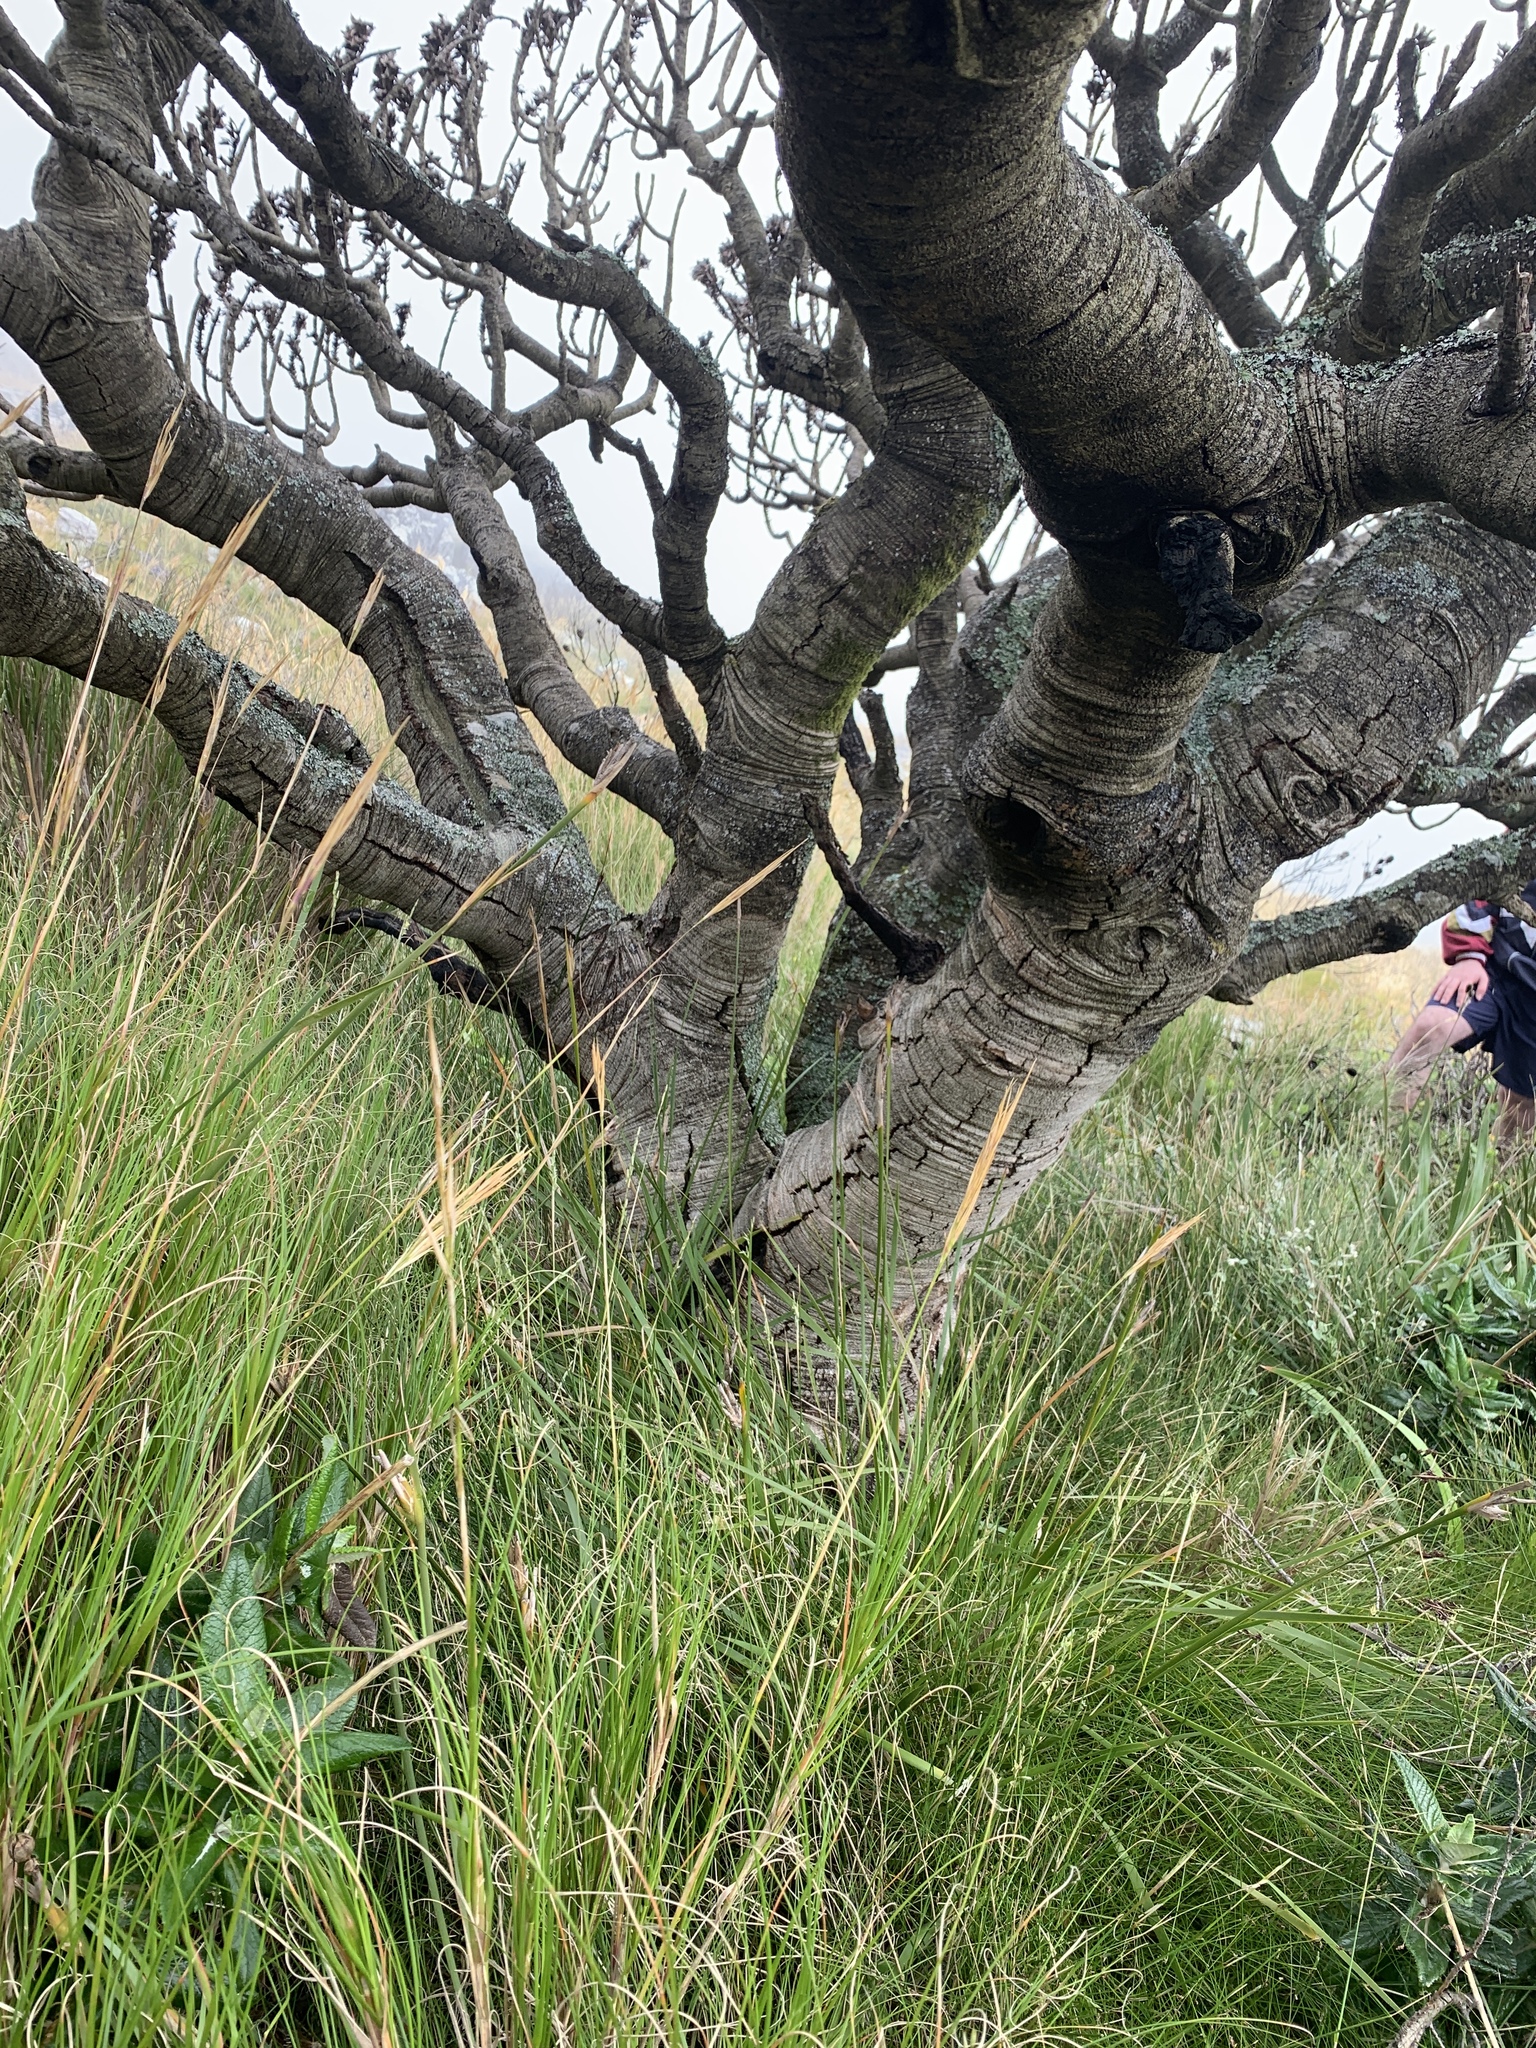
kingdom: Plantae
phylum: Tracheophyta
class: Magnoliopsida
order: Proteales
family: Proteaceae
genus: Mimetes
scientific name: Mimetes fimbriifolius
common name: Fringed bottlebrush
